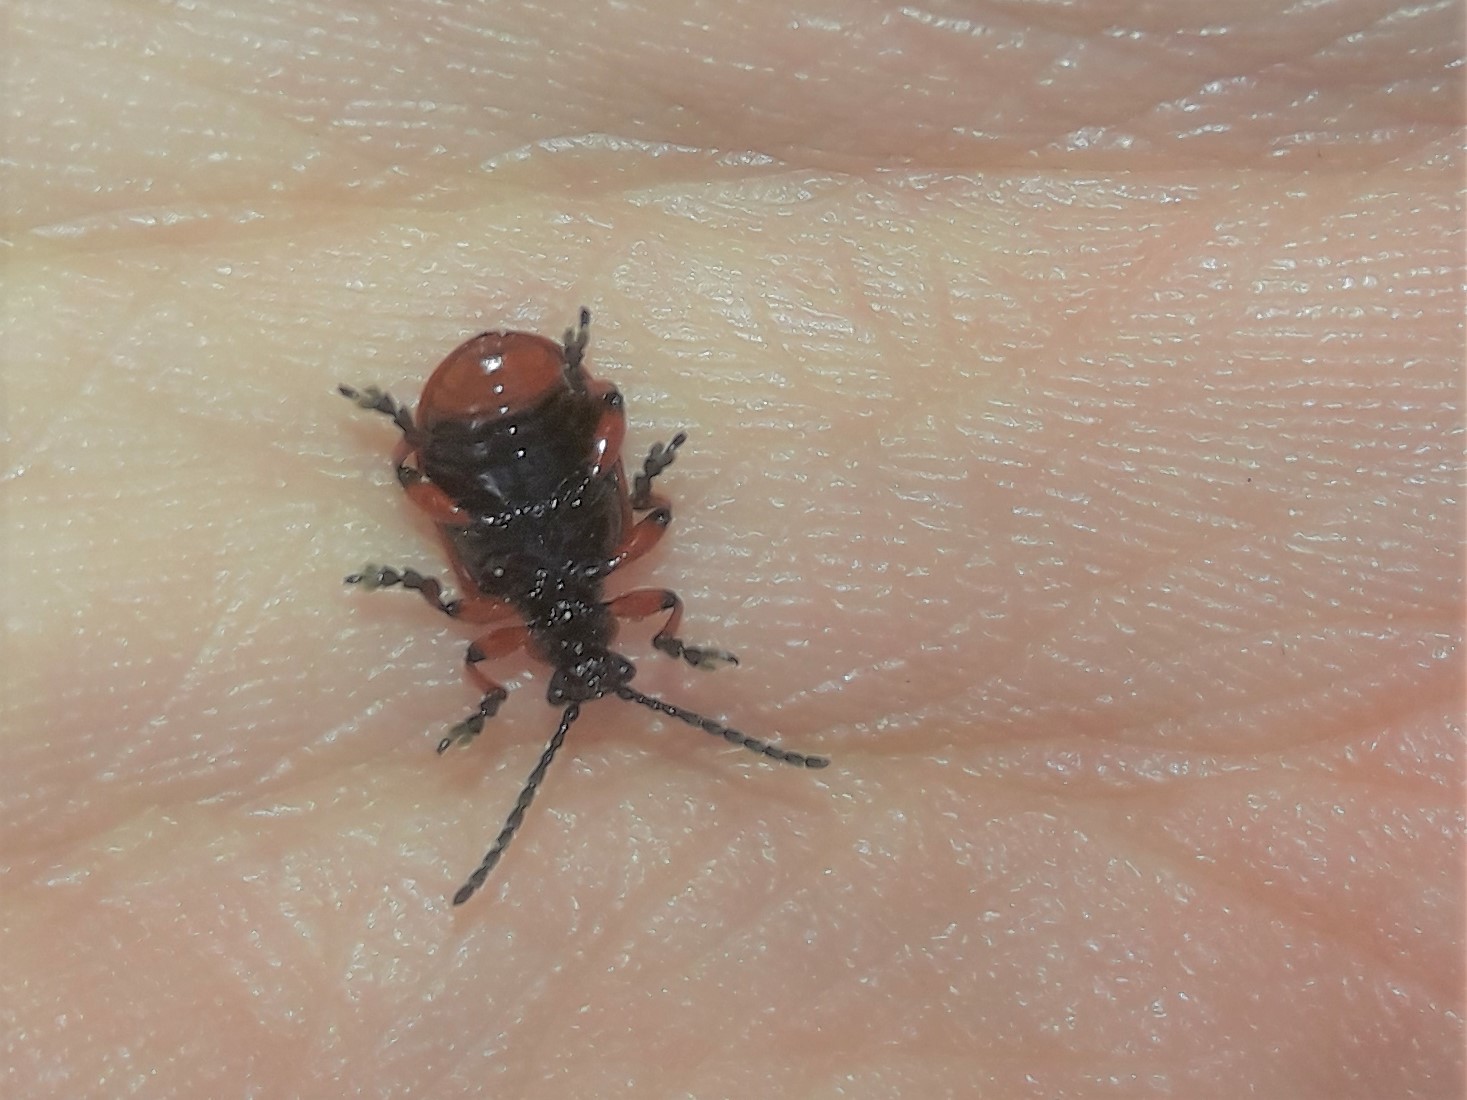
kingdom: Animalia
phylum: Arthropoda
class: Insecta
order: Coleoptera
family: Chrysomelidae
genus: Lilioceris
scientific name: Lilioceris merdigera
